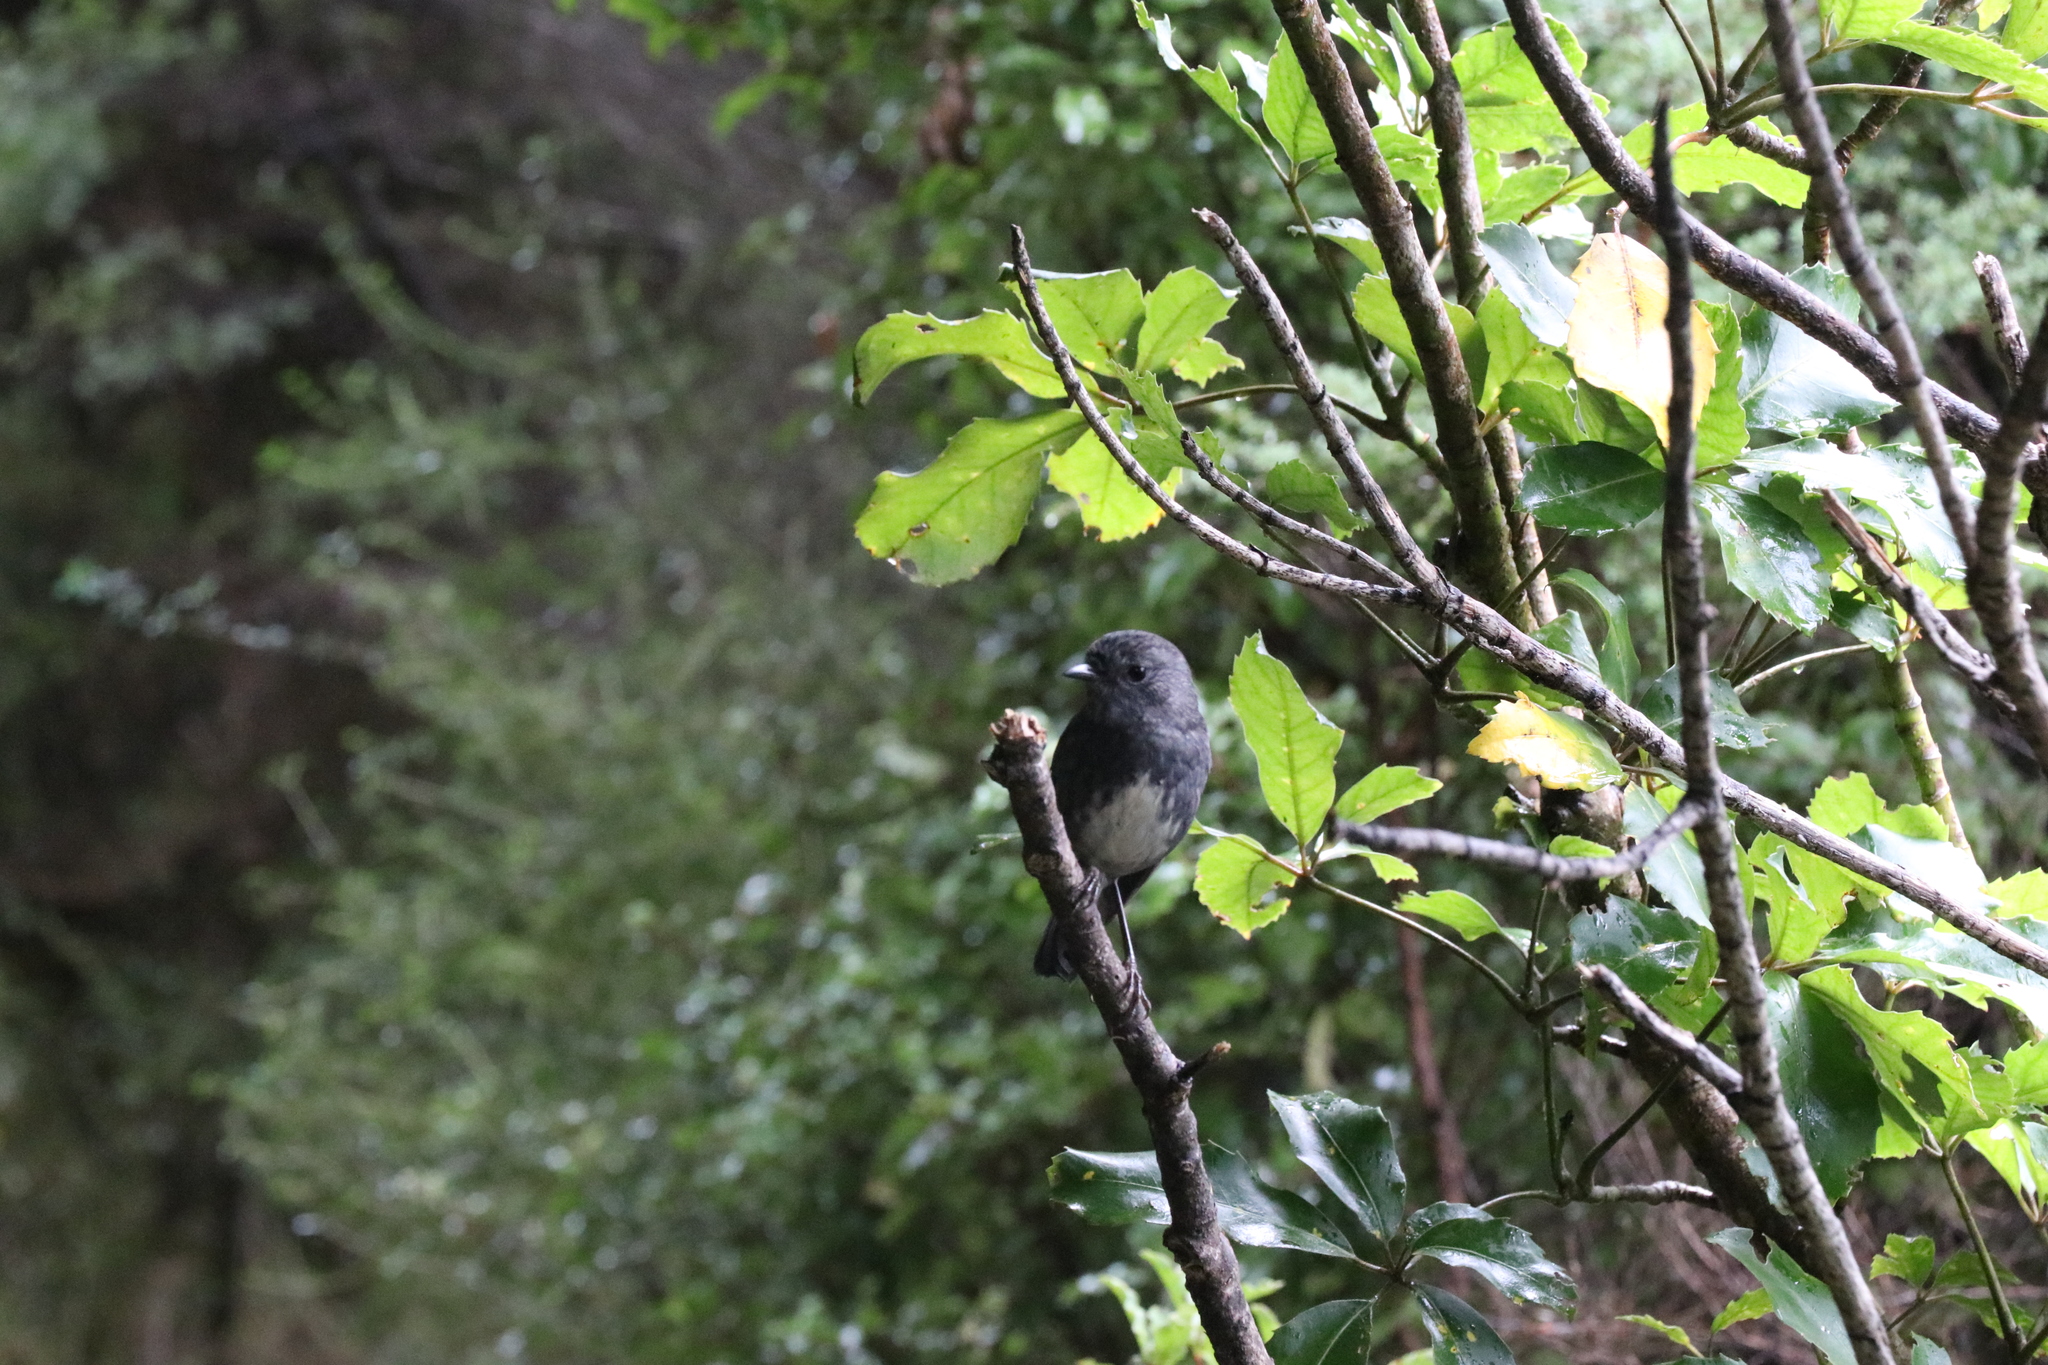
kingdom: Animalia
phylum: Chordata
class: Aves
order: Passeriformes
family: Petroicidae
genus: Petroica
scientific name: Petroica australis
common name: New zealand robin
